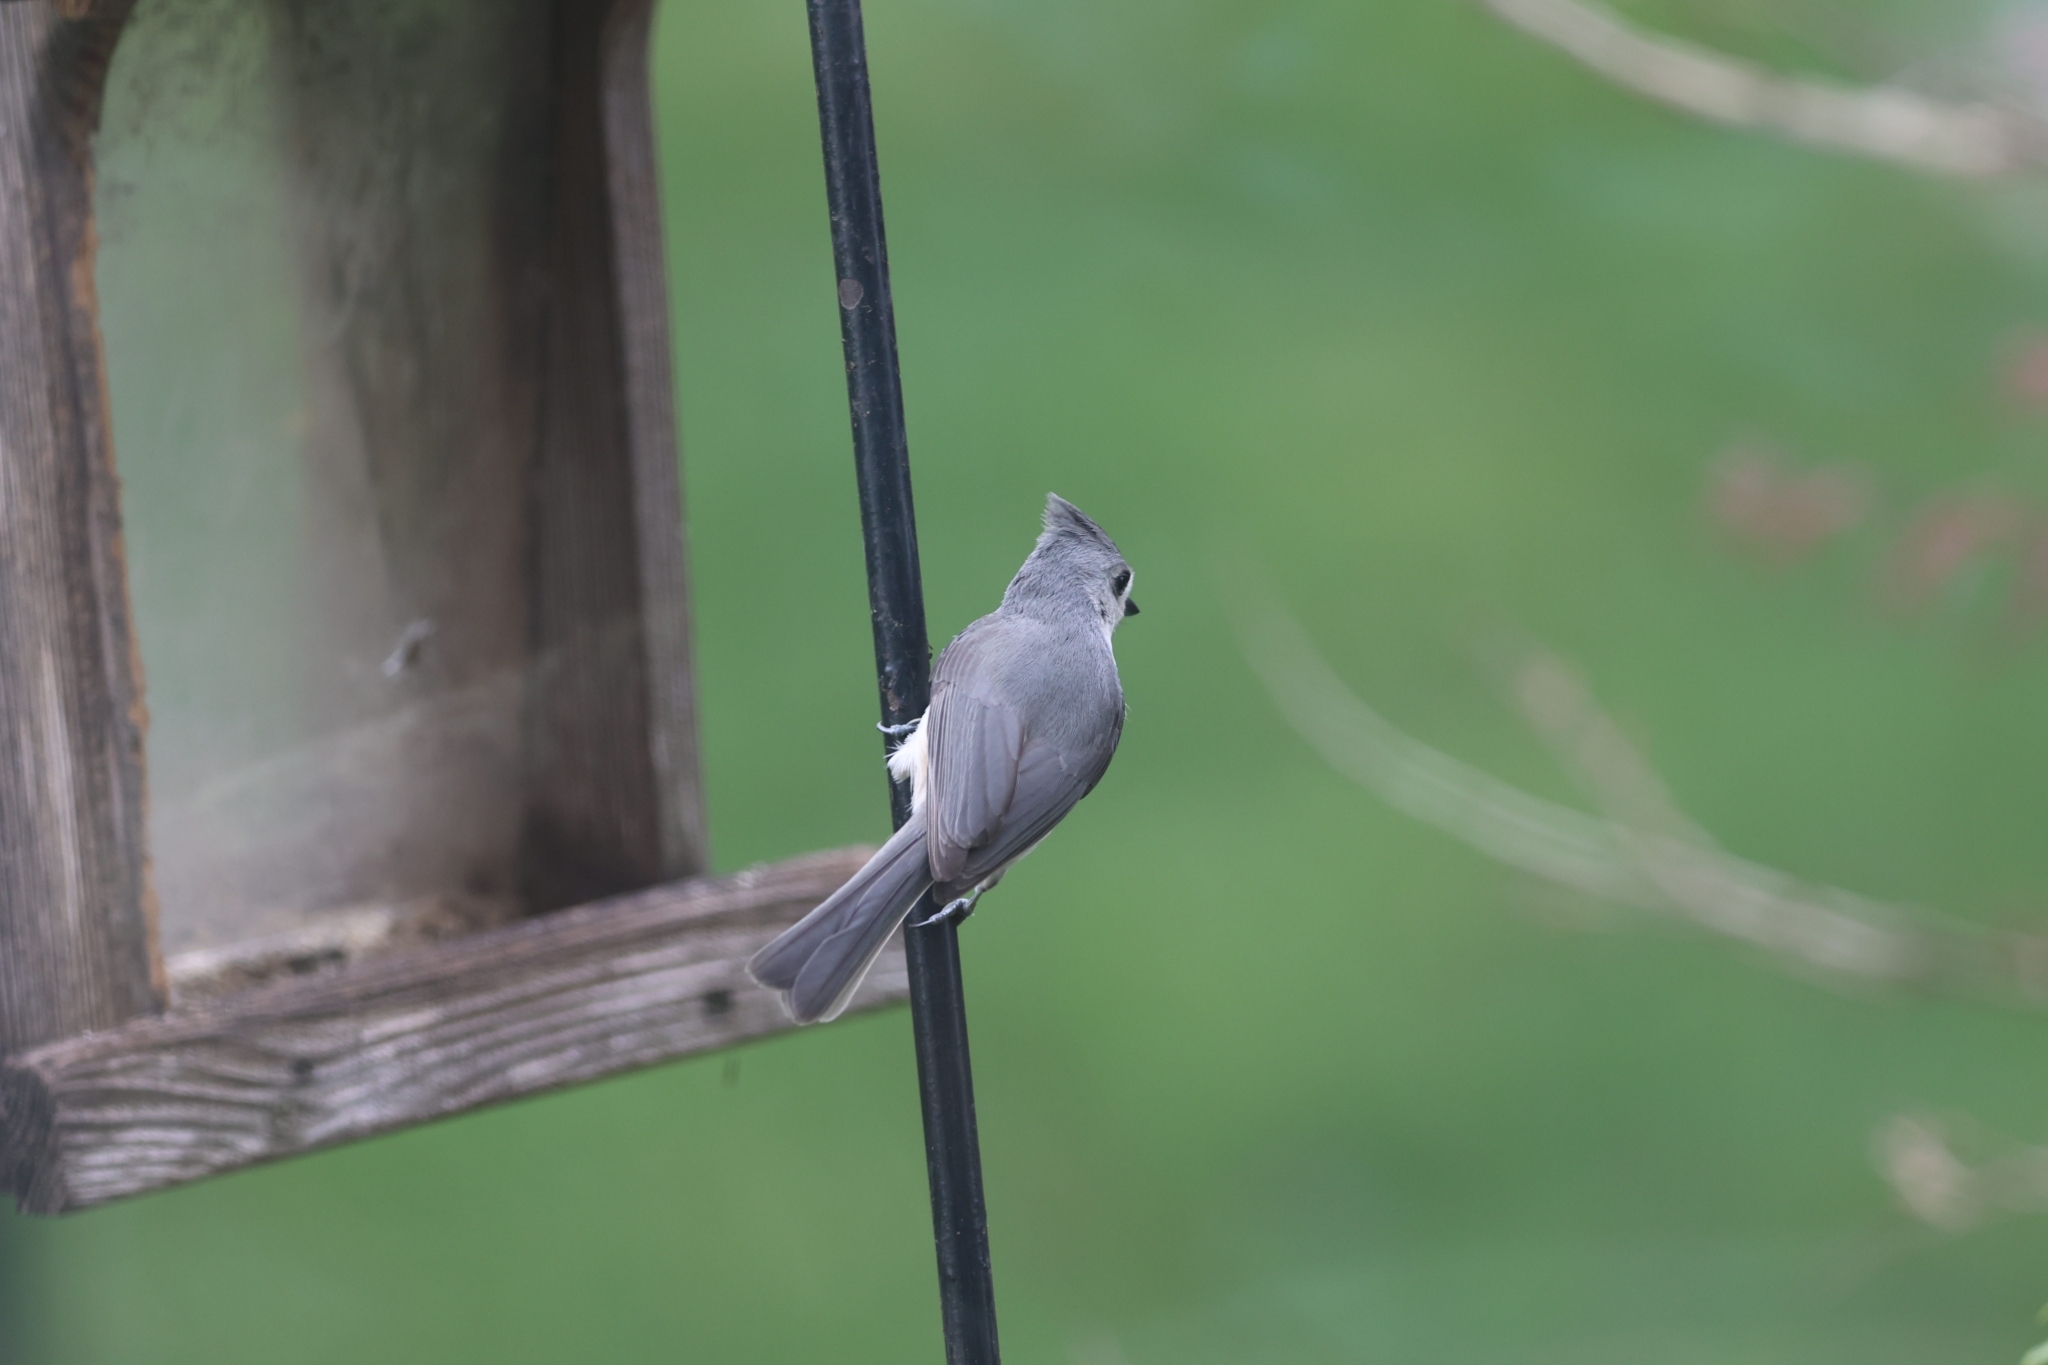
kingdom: Animalia
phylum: Chordata
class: Aves
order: Passeriformes
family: Paridae
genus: Baeolophus
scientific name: Baeolophus bicolor
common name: Tufted titmouse
